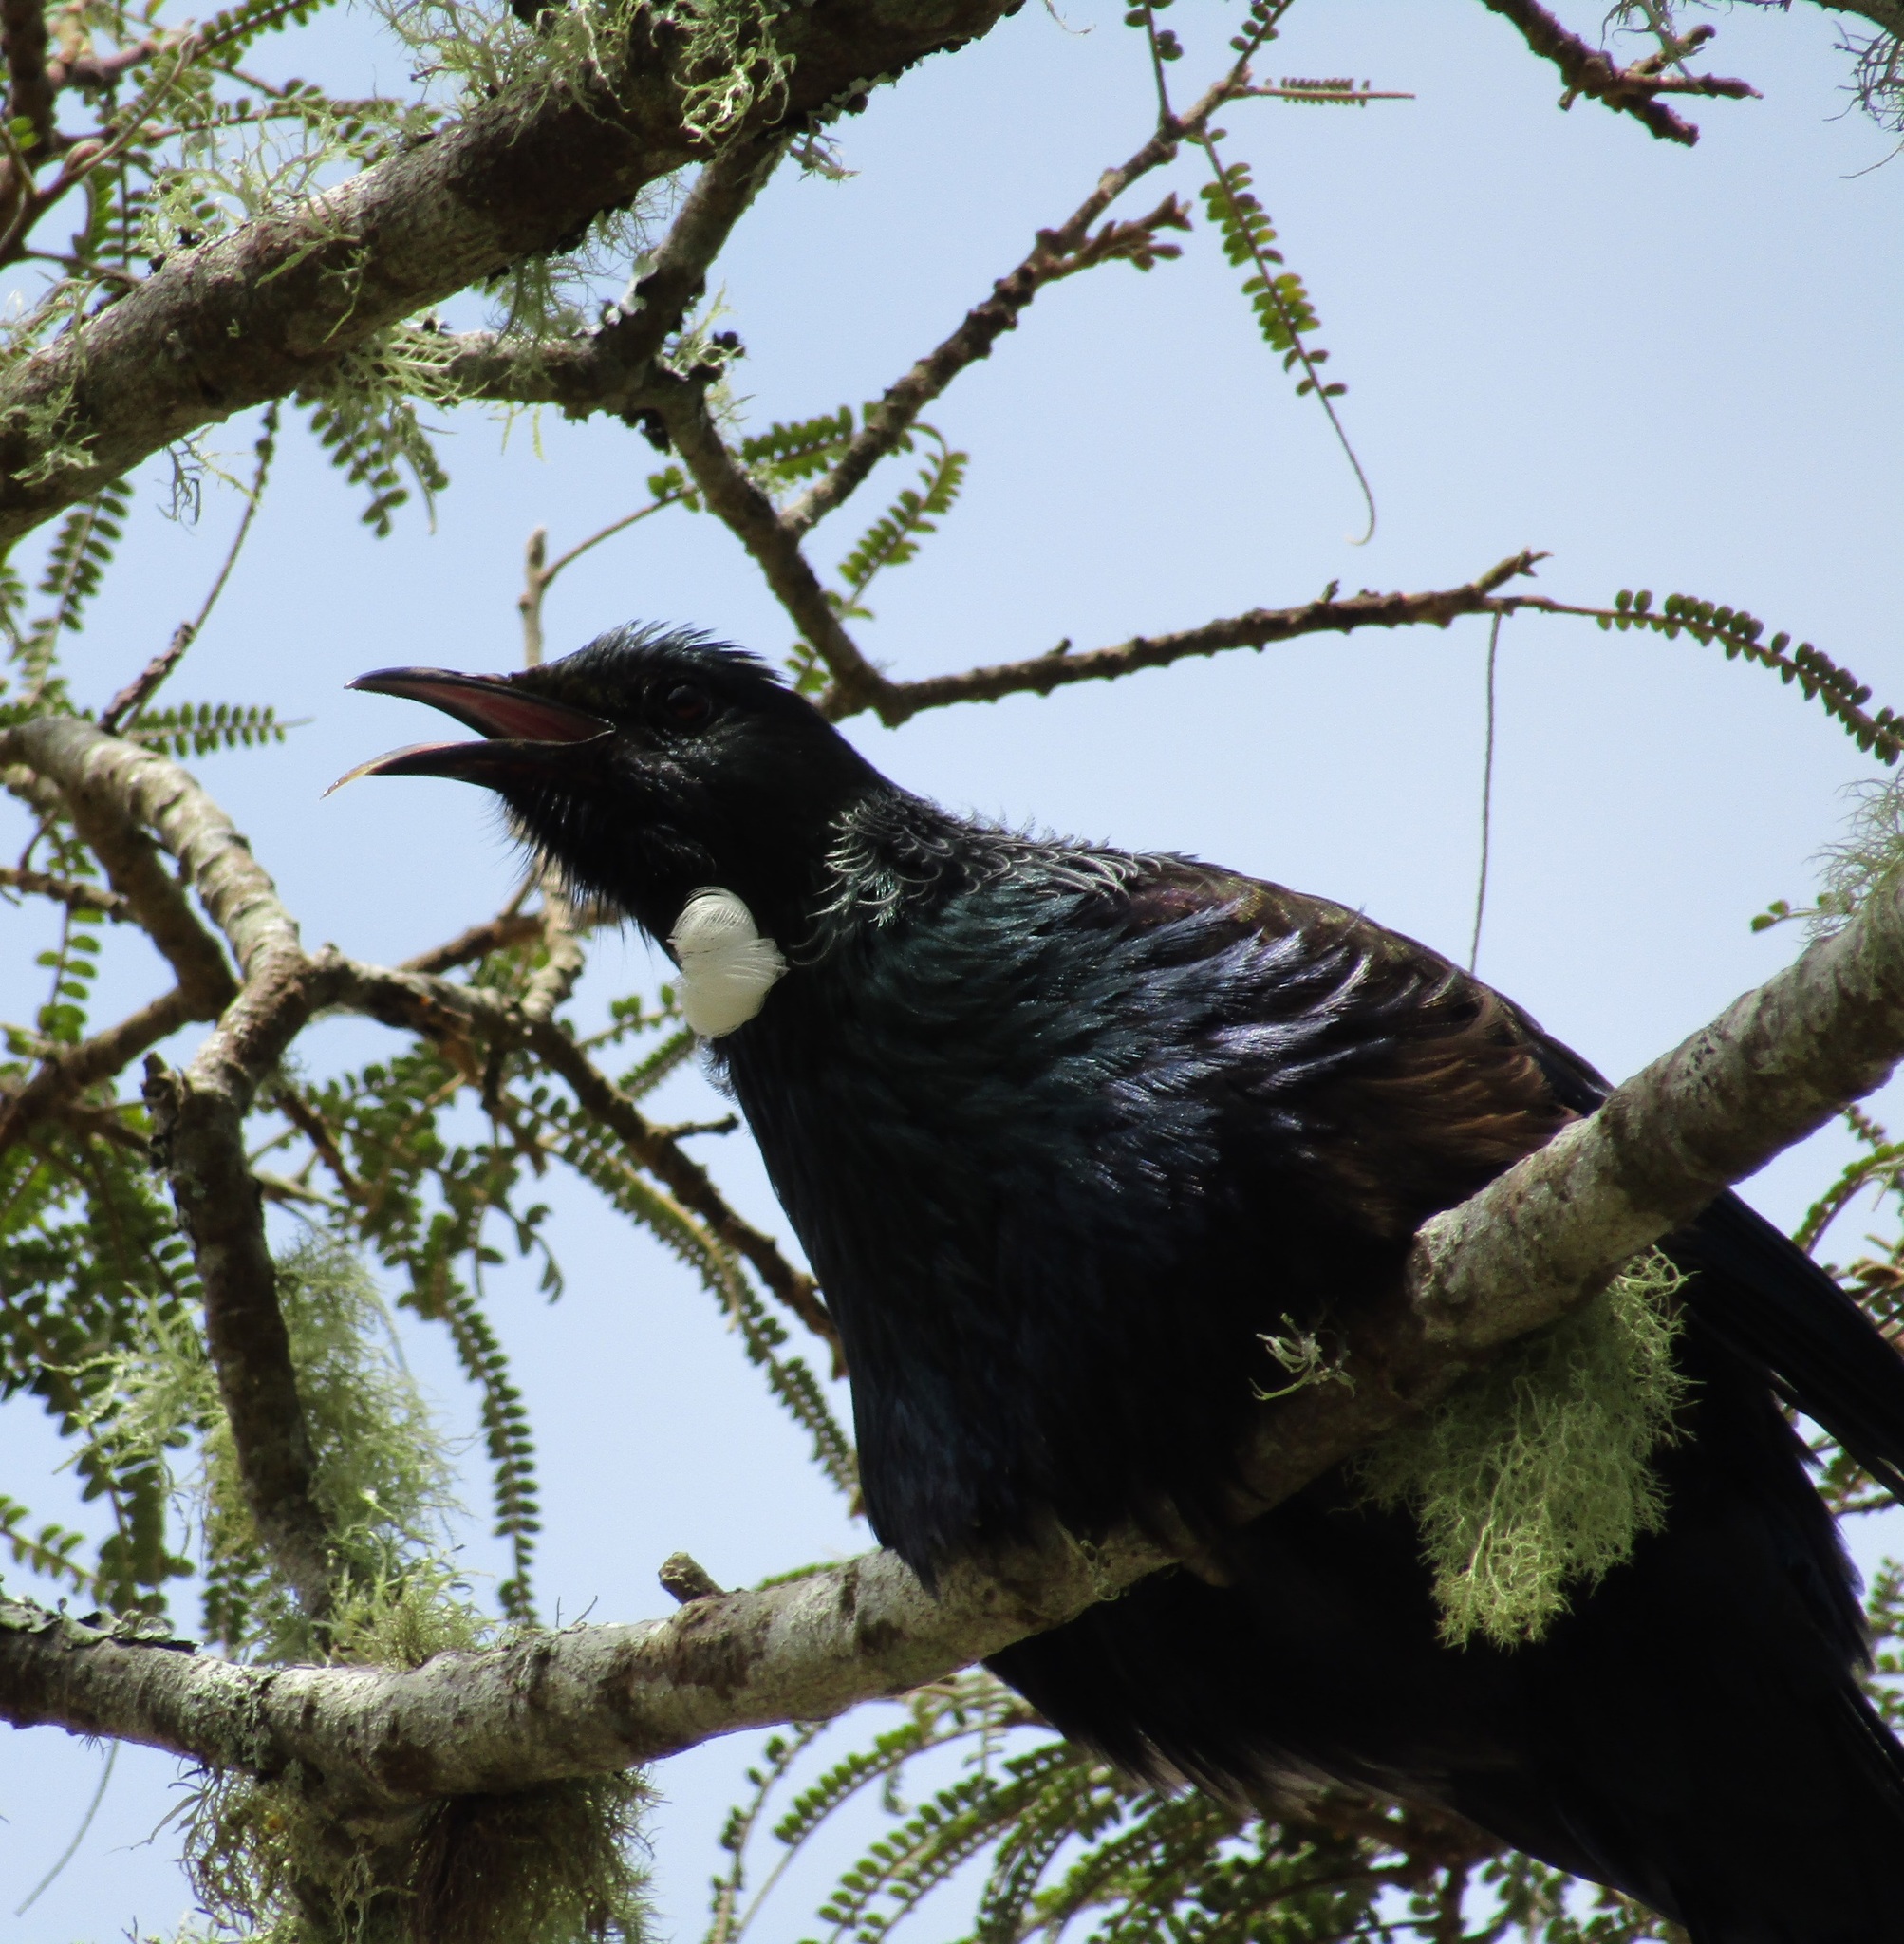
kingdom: Animalia
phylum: Chordata
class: Aves
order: Passeriformes
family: Meliphagidae
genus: Prosthemadera
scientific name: Prosthemadera novaeseelandiae
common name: Tui
